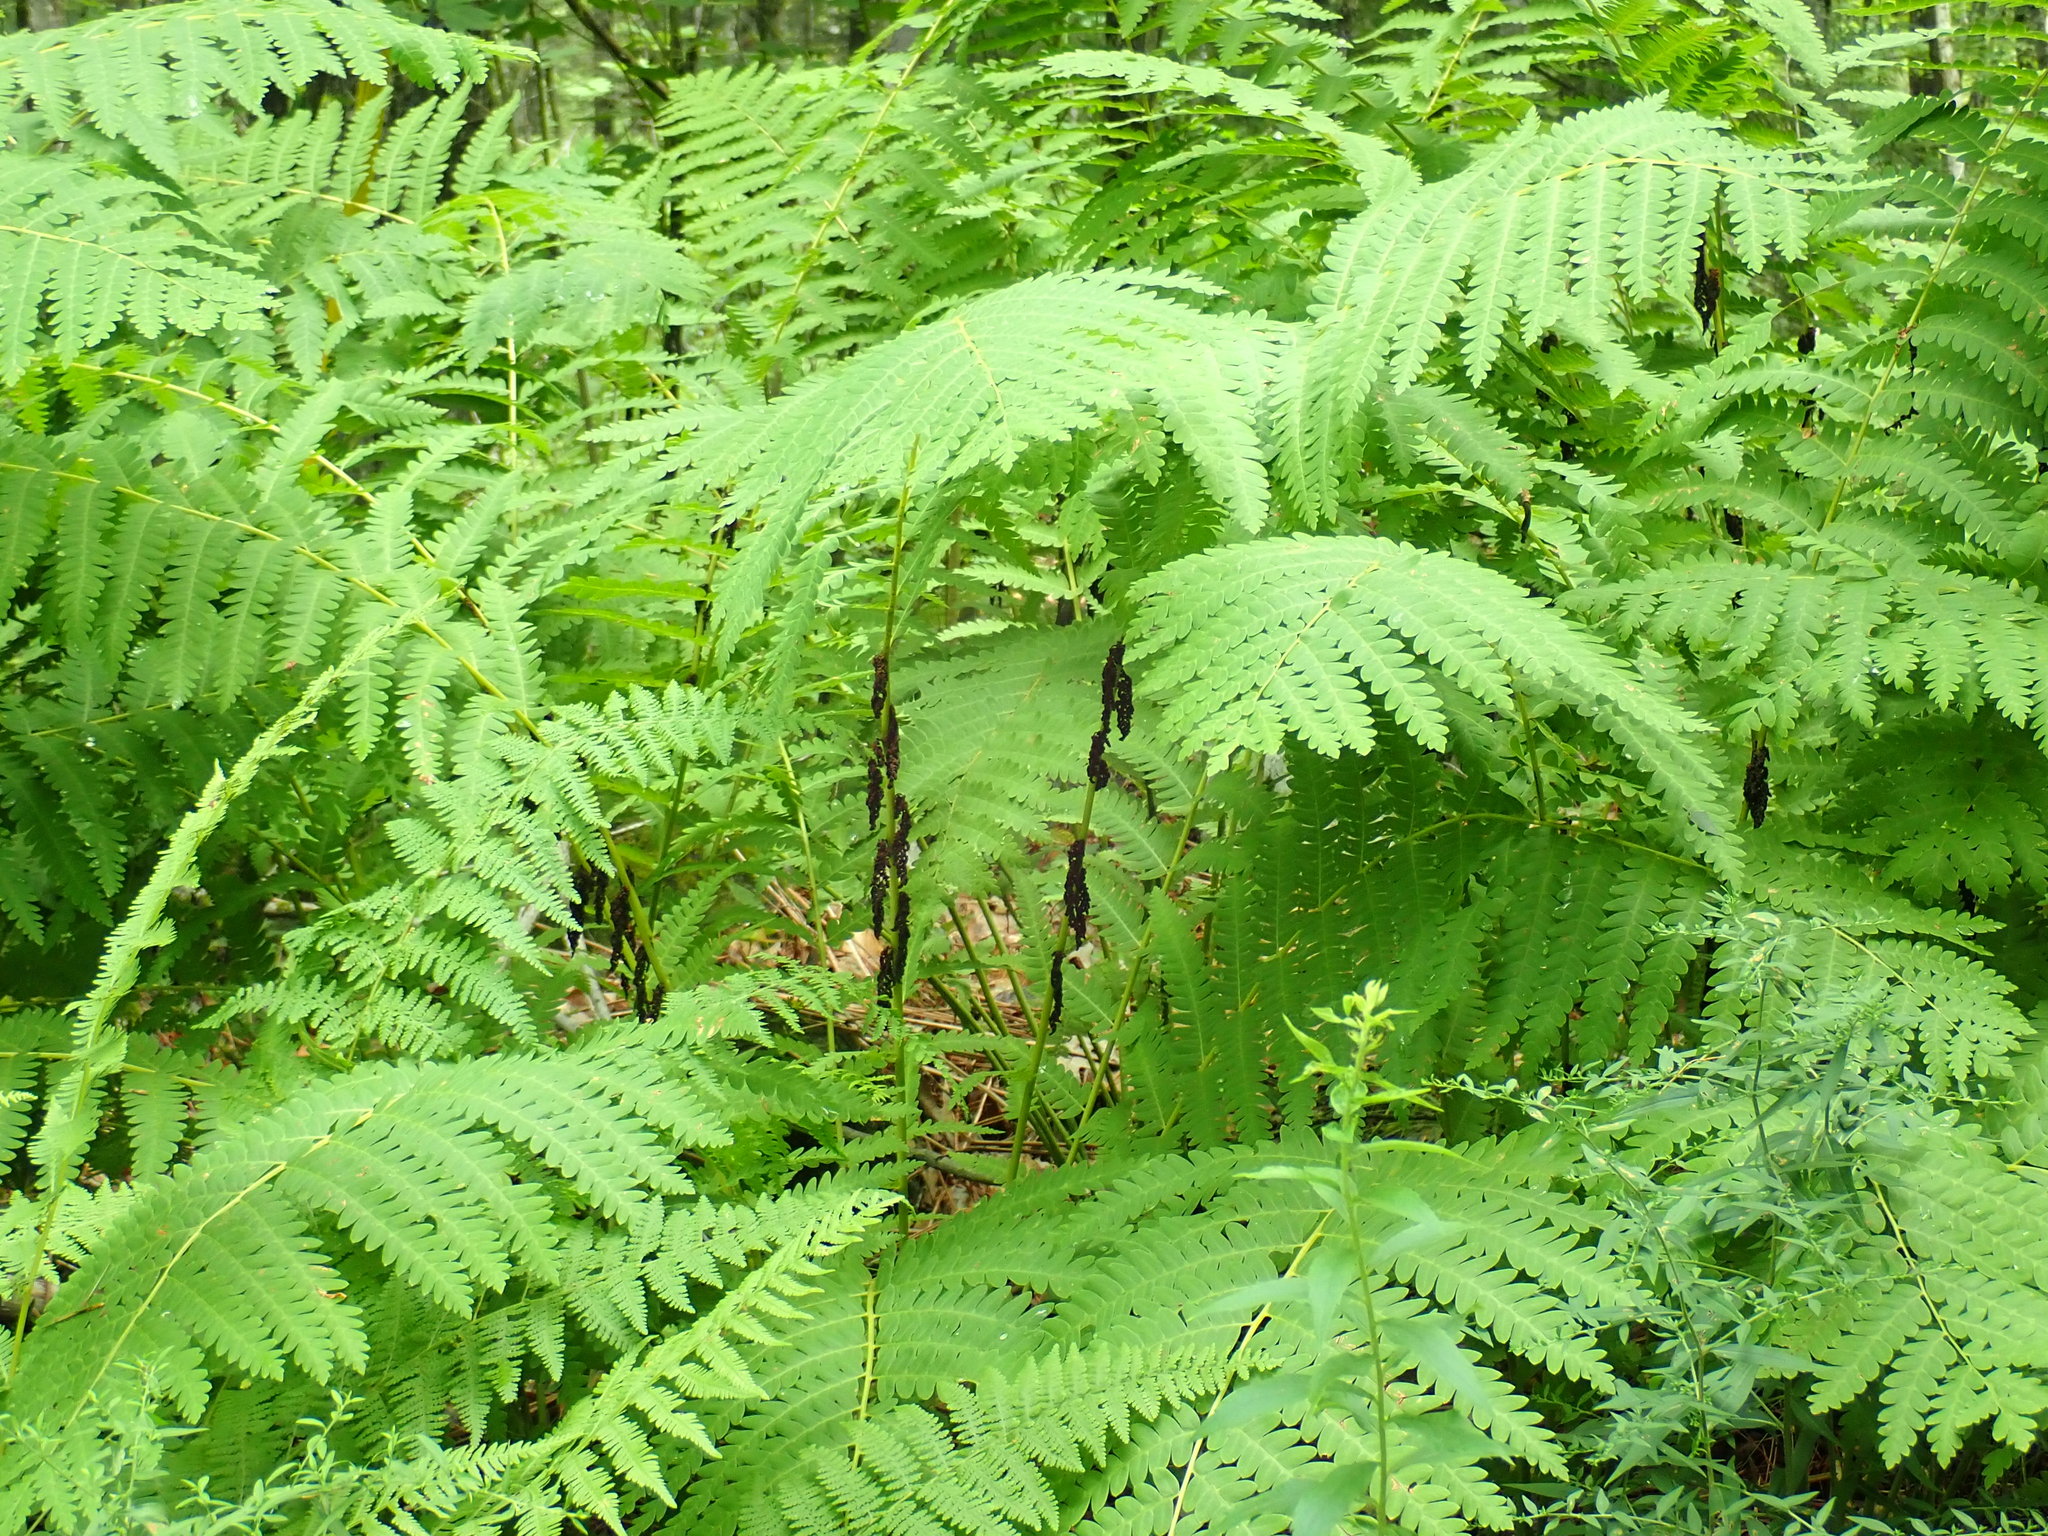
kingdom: Plantae
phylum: Tracheophyta
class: Polypodiopsida
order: Osmundales
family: Osmundaceae
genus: Claytosmunda
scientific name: Claytosmunda claytoniana
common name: Clayton's fern
